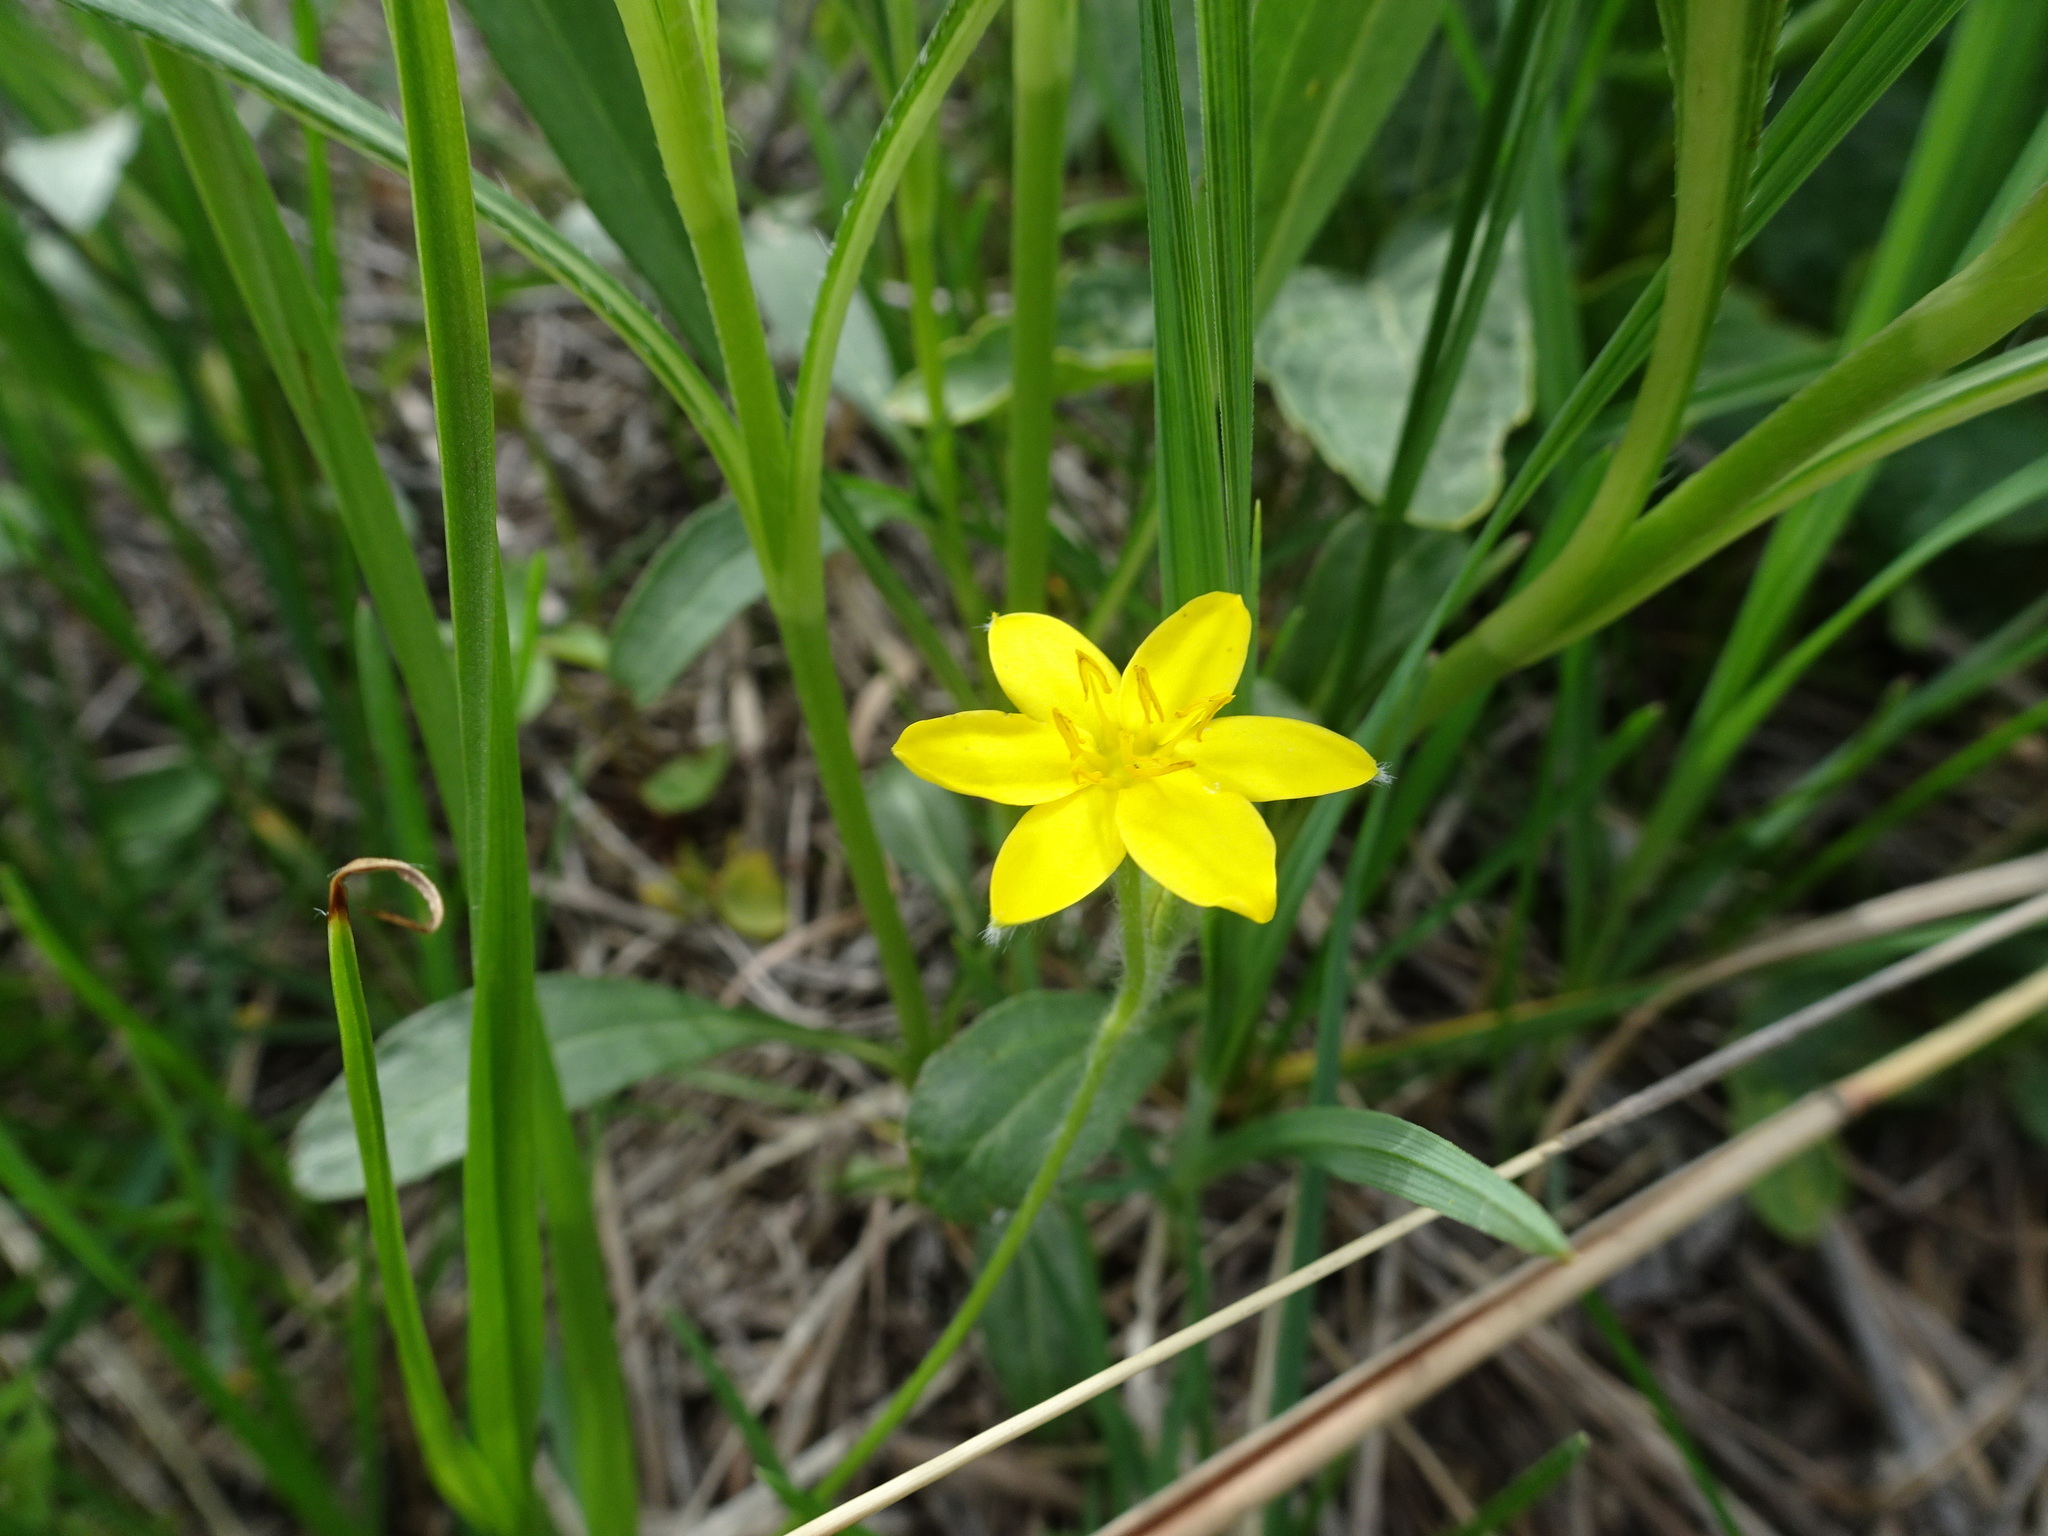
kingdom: Plantae
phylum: Tracheophyta
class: Liliopsida
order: Asparagales
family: Hypoxidaceae
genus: Hypoxis
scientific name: Hypoxis hirsuta
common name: Common goldstar
